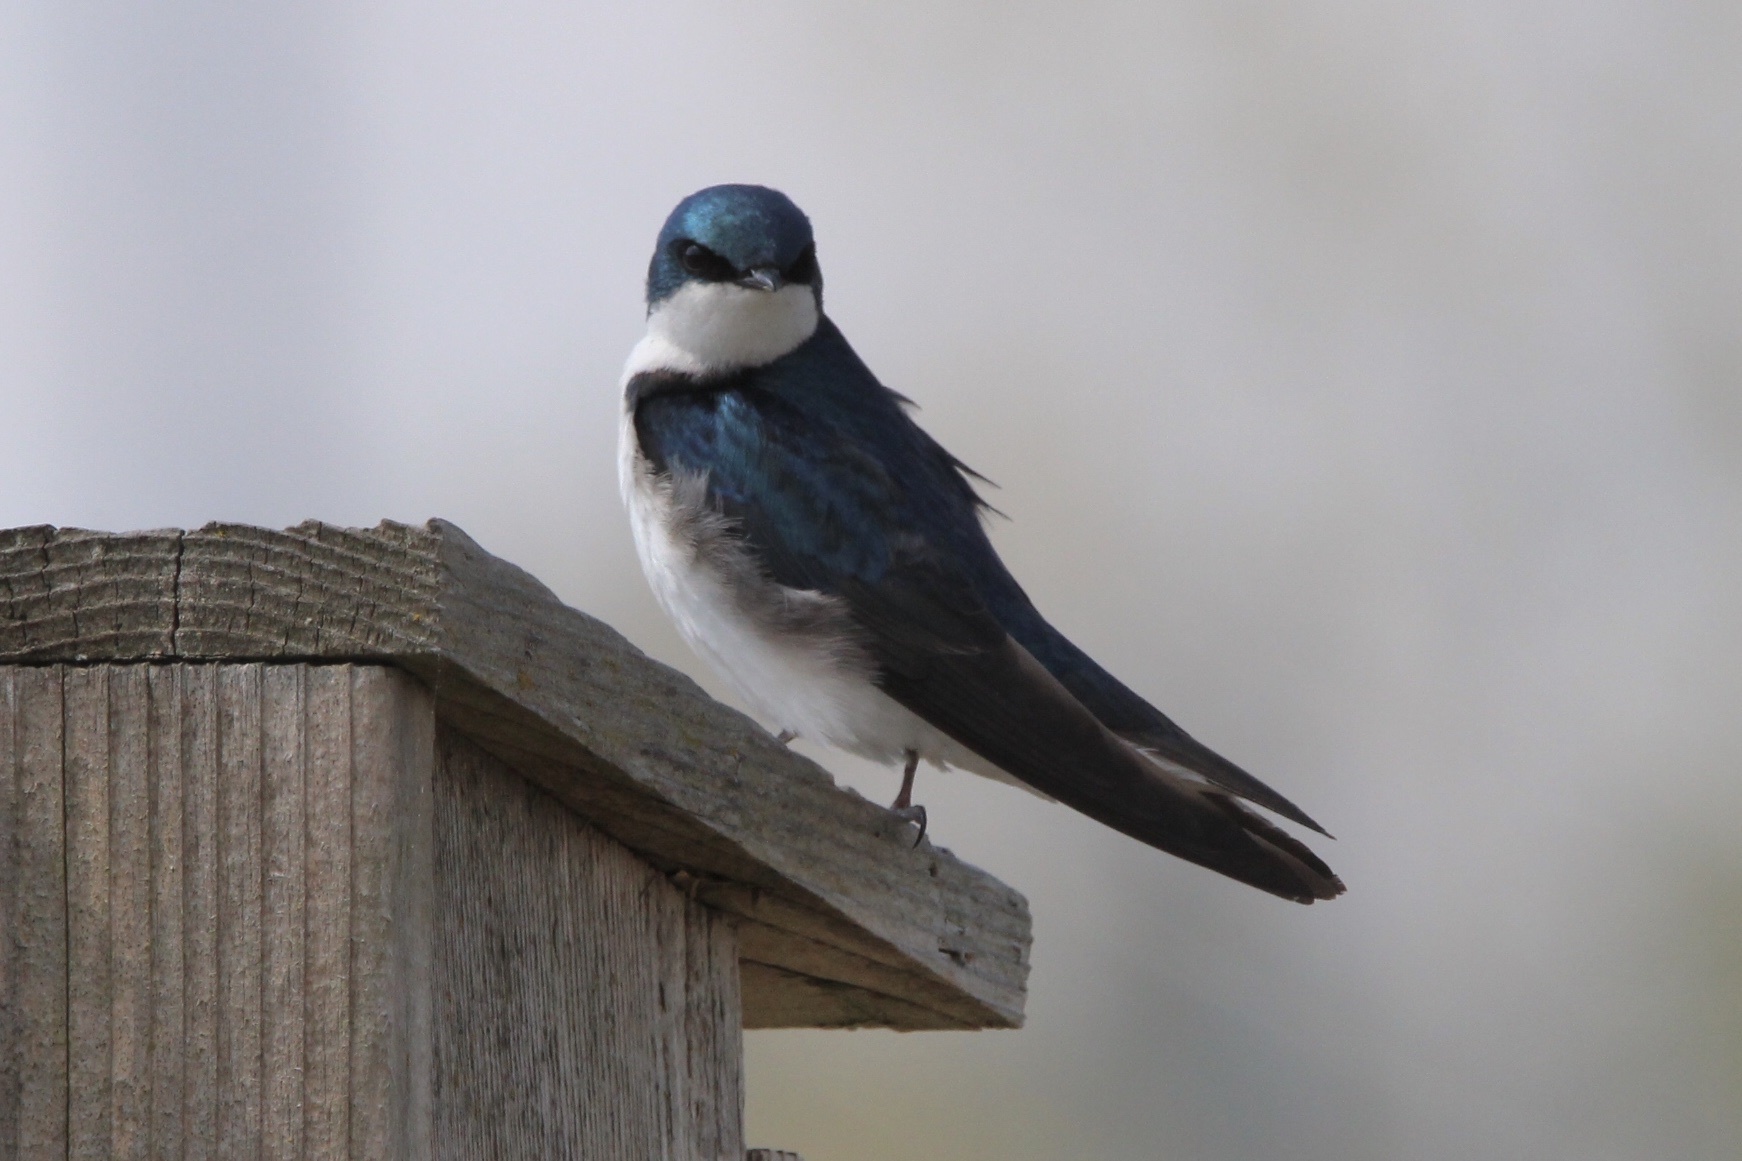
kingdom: Animalia
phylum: Chordata
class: Aves
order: Passeriformes
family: Hirundinidae
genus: Tachycineta
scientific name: Tachycineta bicolor
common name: Tree swallow
